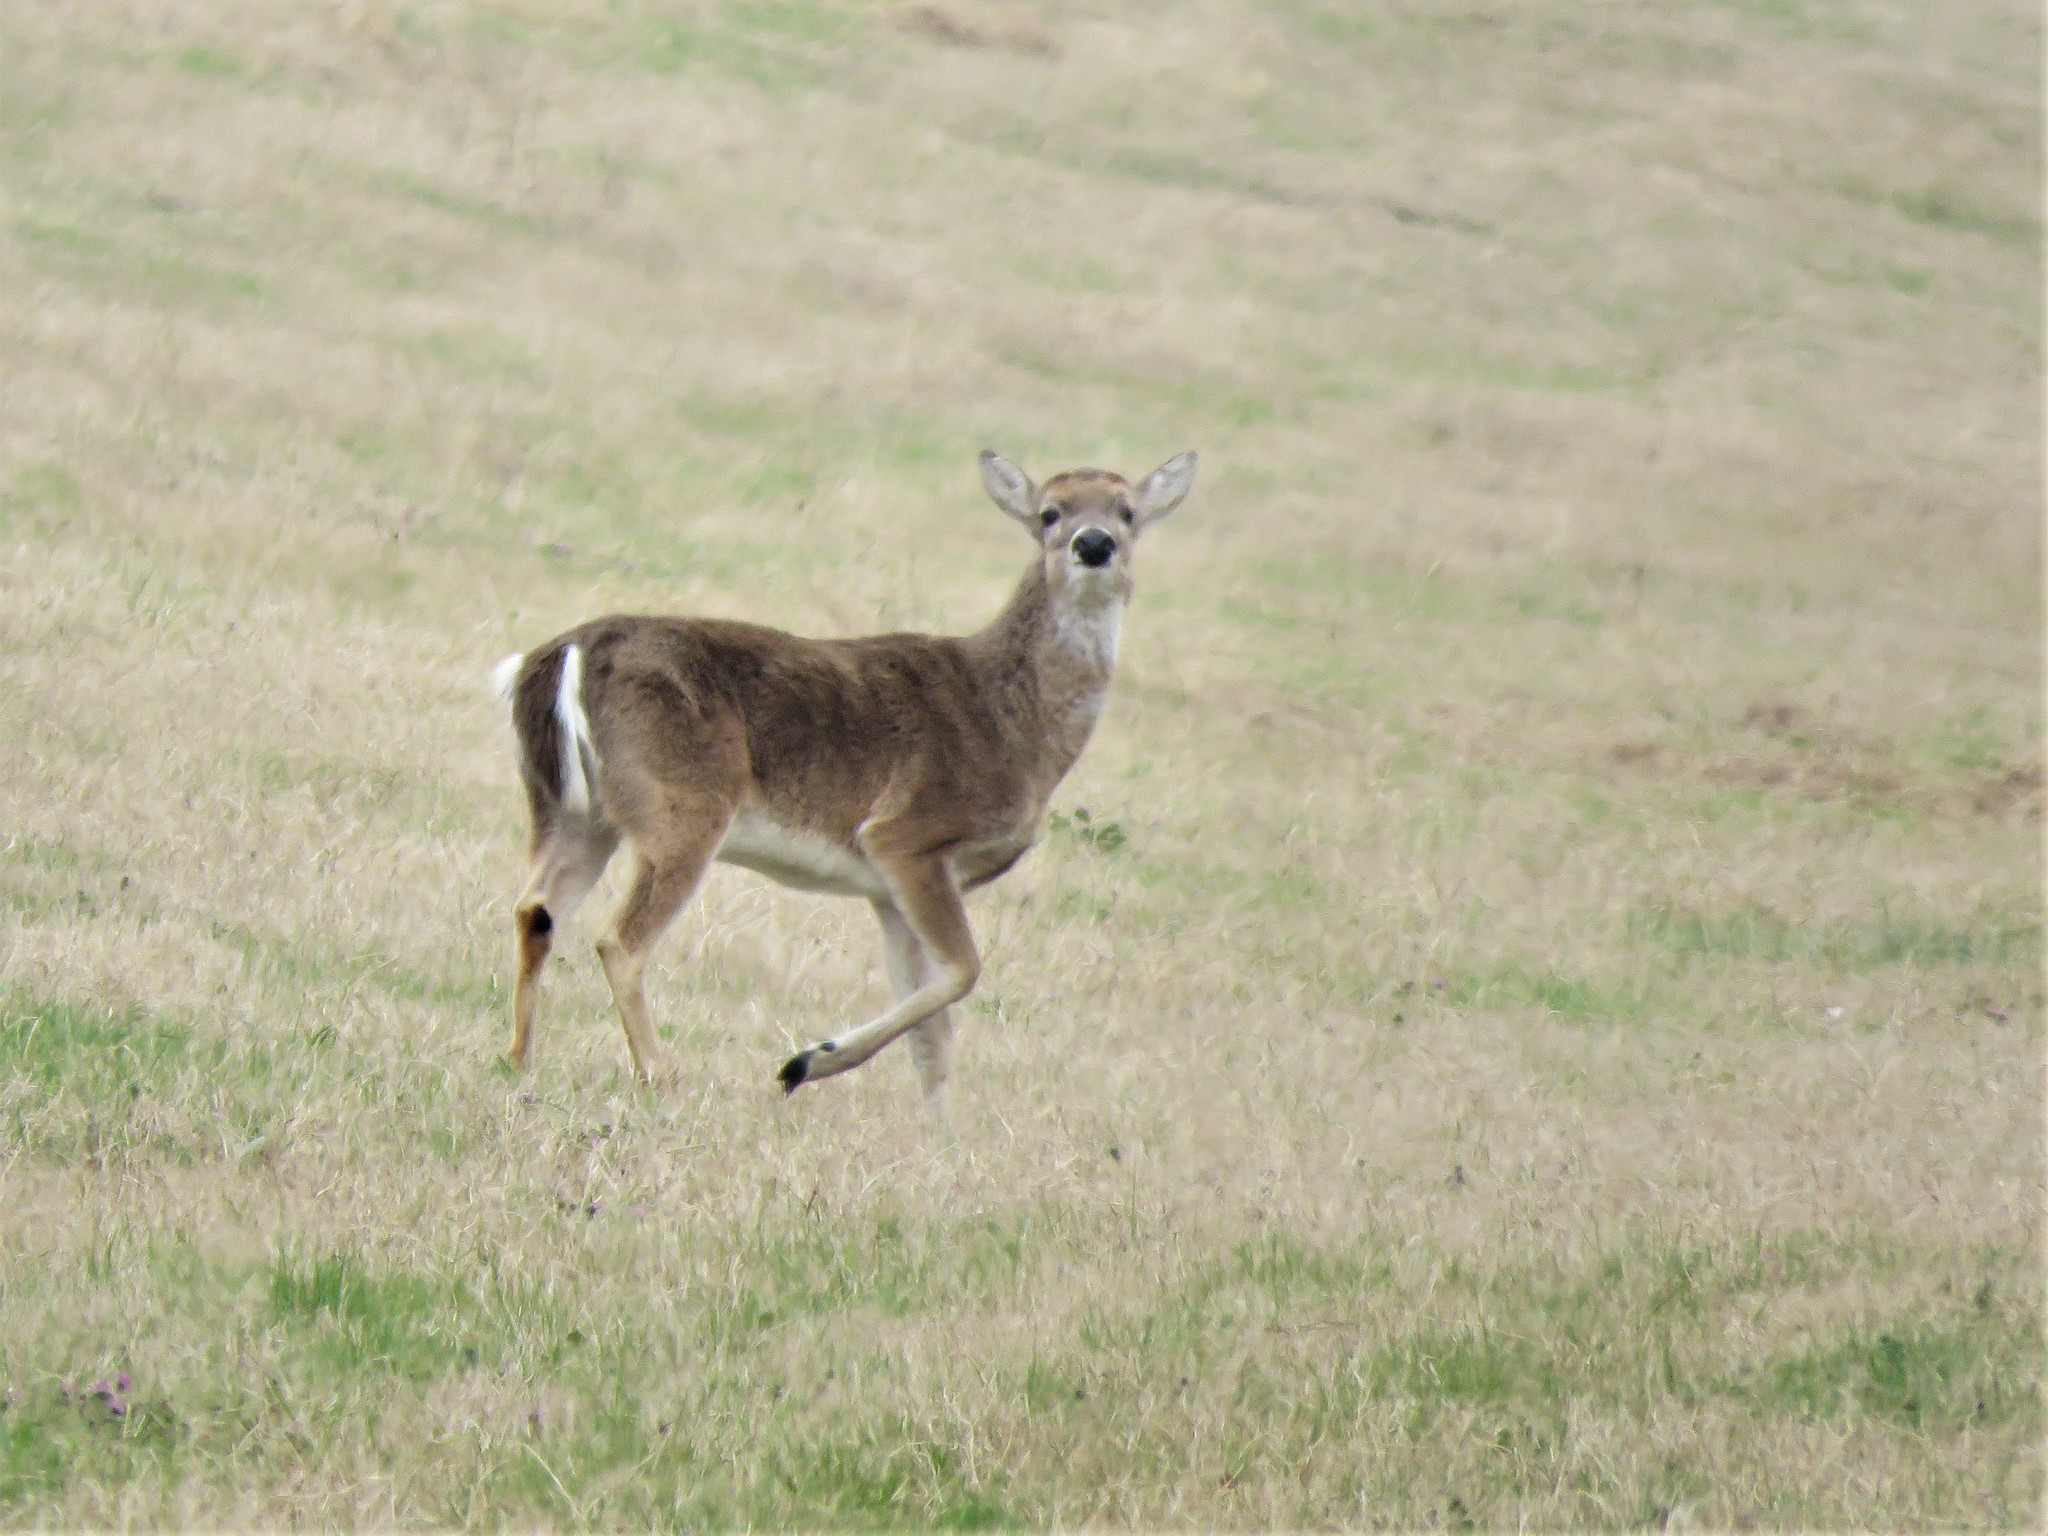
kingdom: Animalia
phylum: Chordata
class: Mammalia
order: Artiodactyla
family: Cervidae
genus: Odocoileus
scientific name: Odocoileus virginianus
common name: White-tailed deer
